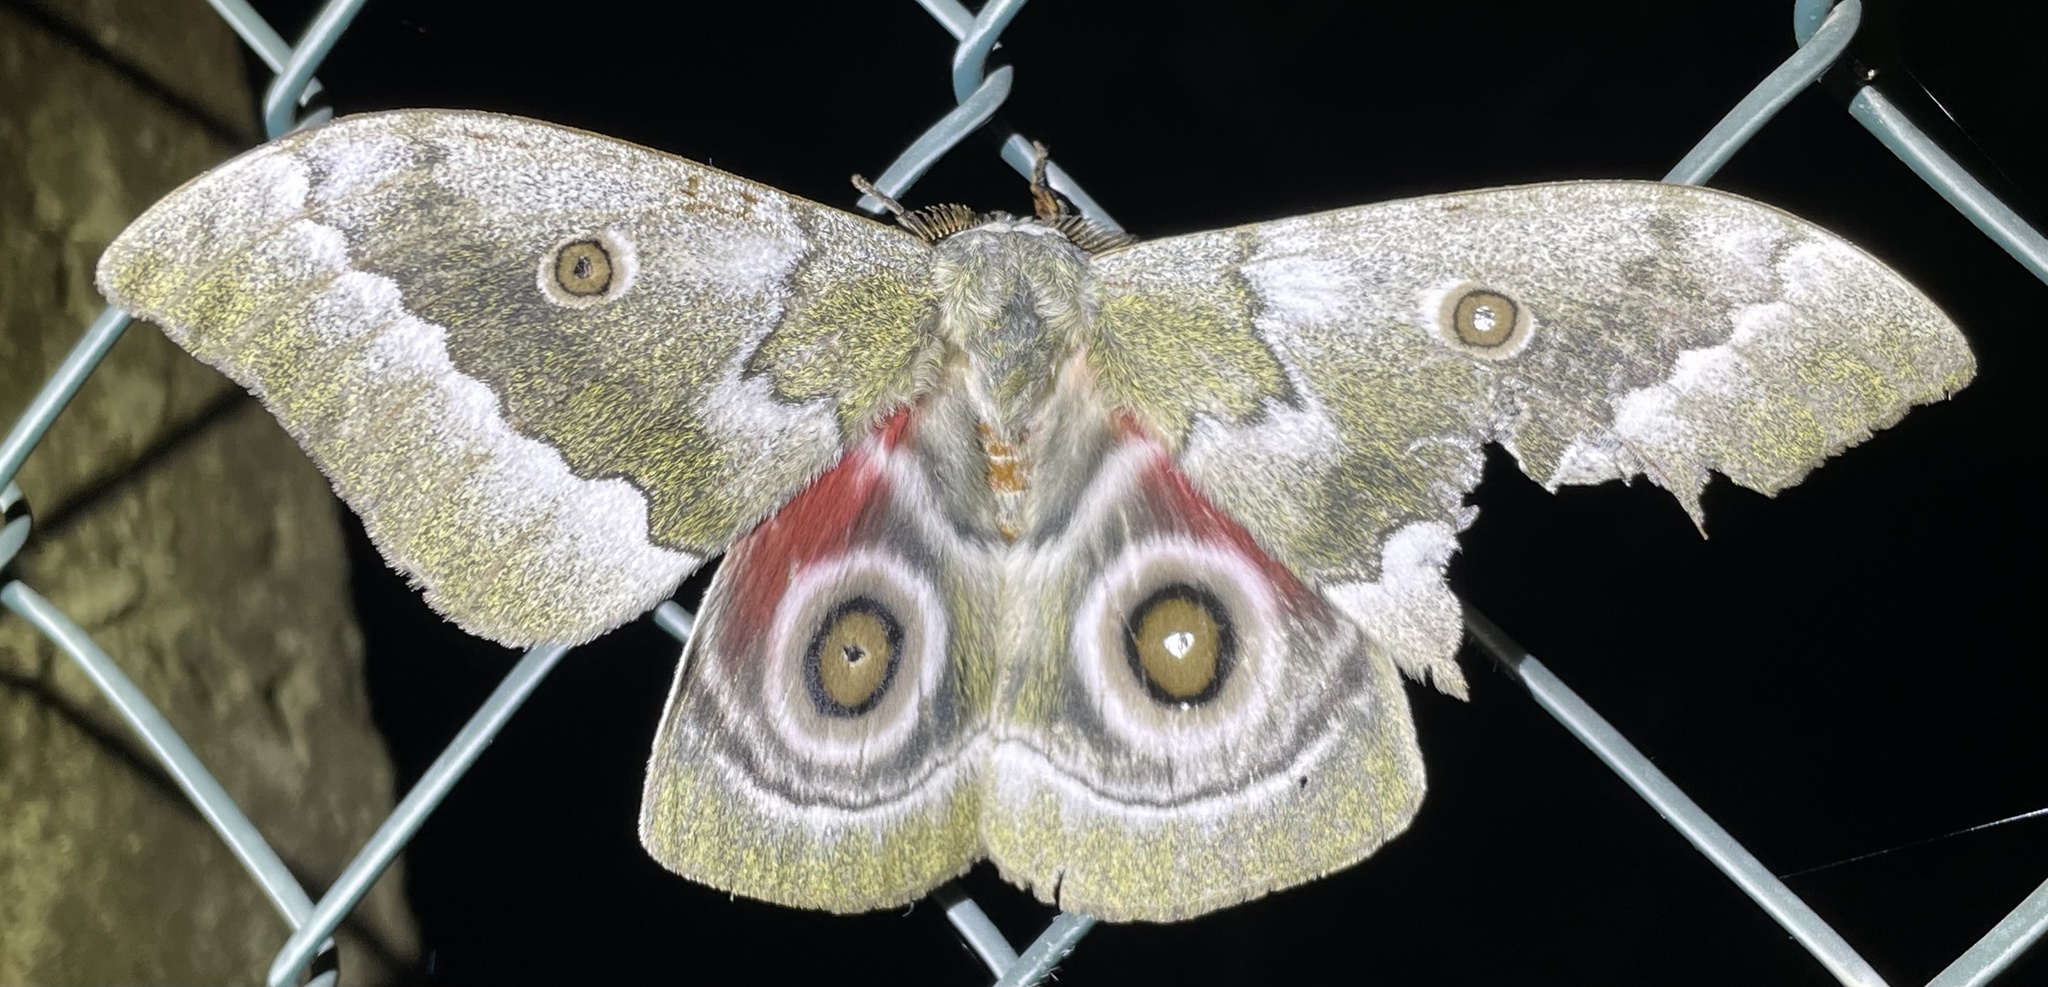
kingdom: Animalia
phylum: Arthropoda
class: Insecta
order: Lepidoptera
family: Saturniidae
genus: Gonimbrasia
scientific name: Gonimbrasia zambesina
